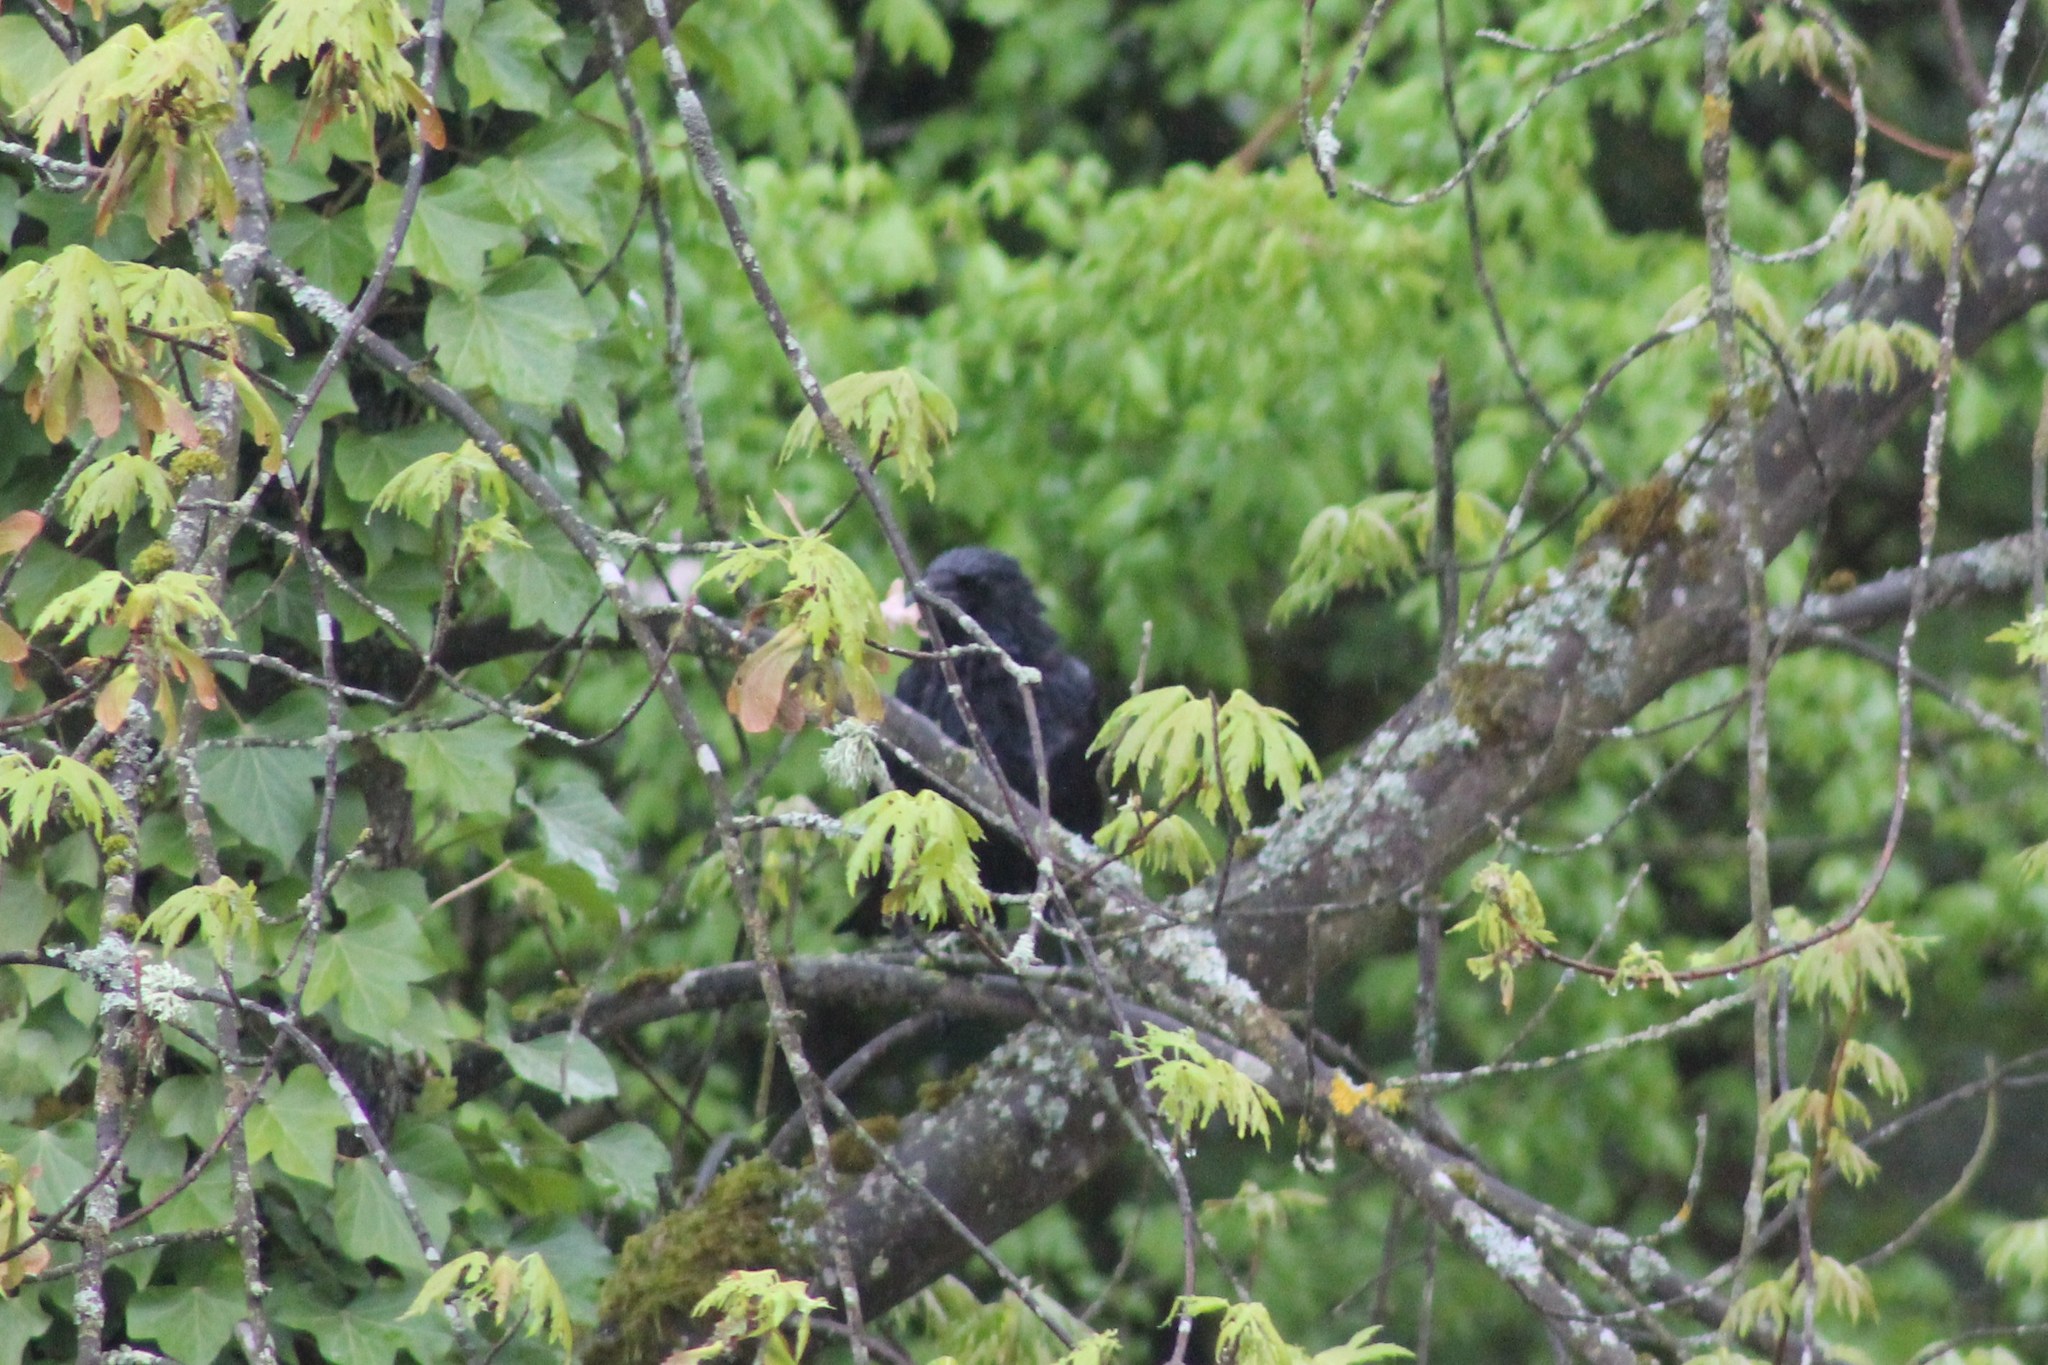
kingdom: Animalia
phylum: Chordata
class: Aves
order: Passeriformes
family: Corvidae
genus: Corvus
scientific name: Corvus corone
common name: Carrion crow
